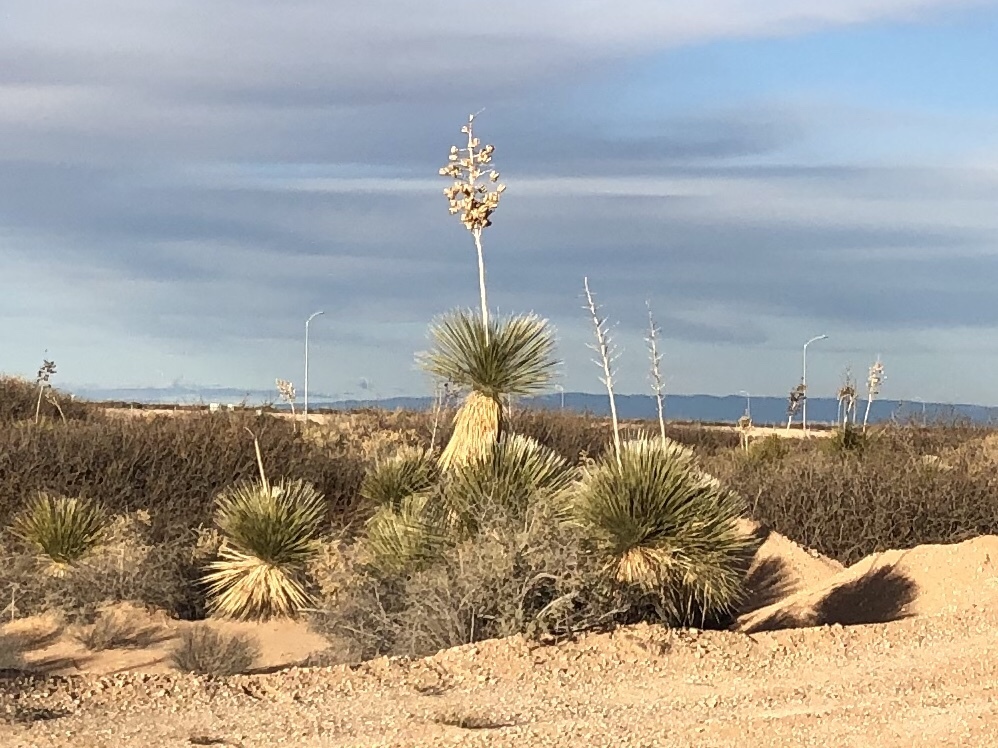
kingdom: Plantae
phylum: Tracheophyta
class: Liliopsida
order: Asparagales
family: Asparagaceae
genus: Yucca
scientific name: Yucca elata
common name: Palmella
